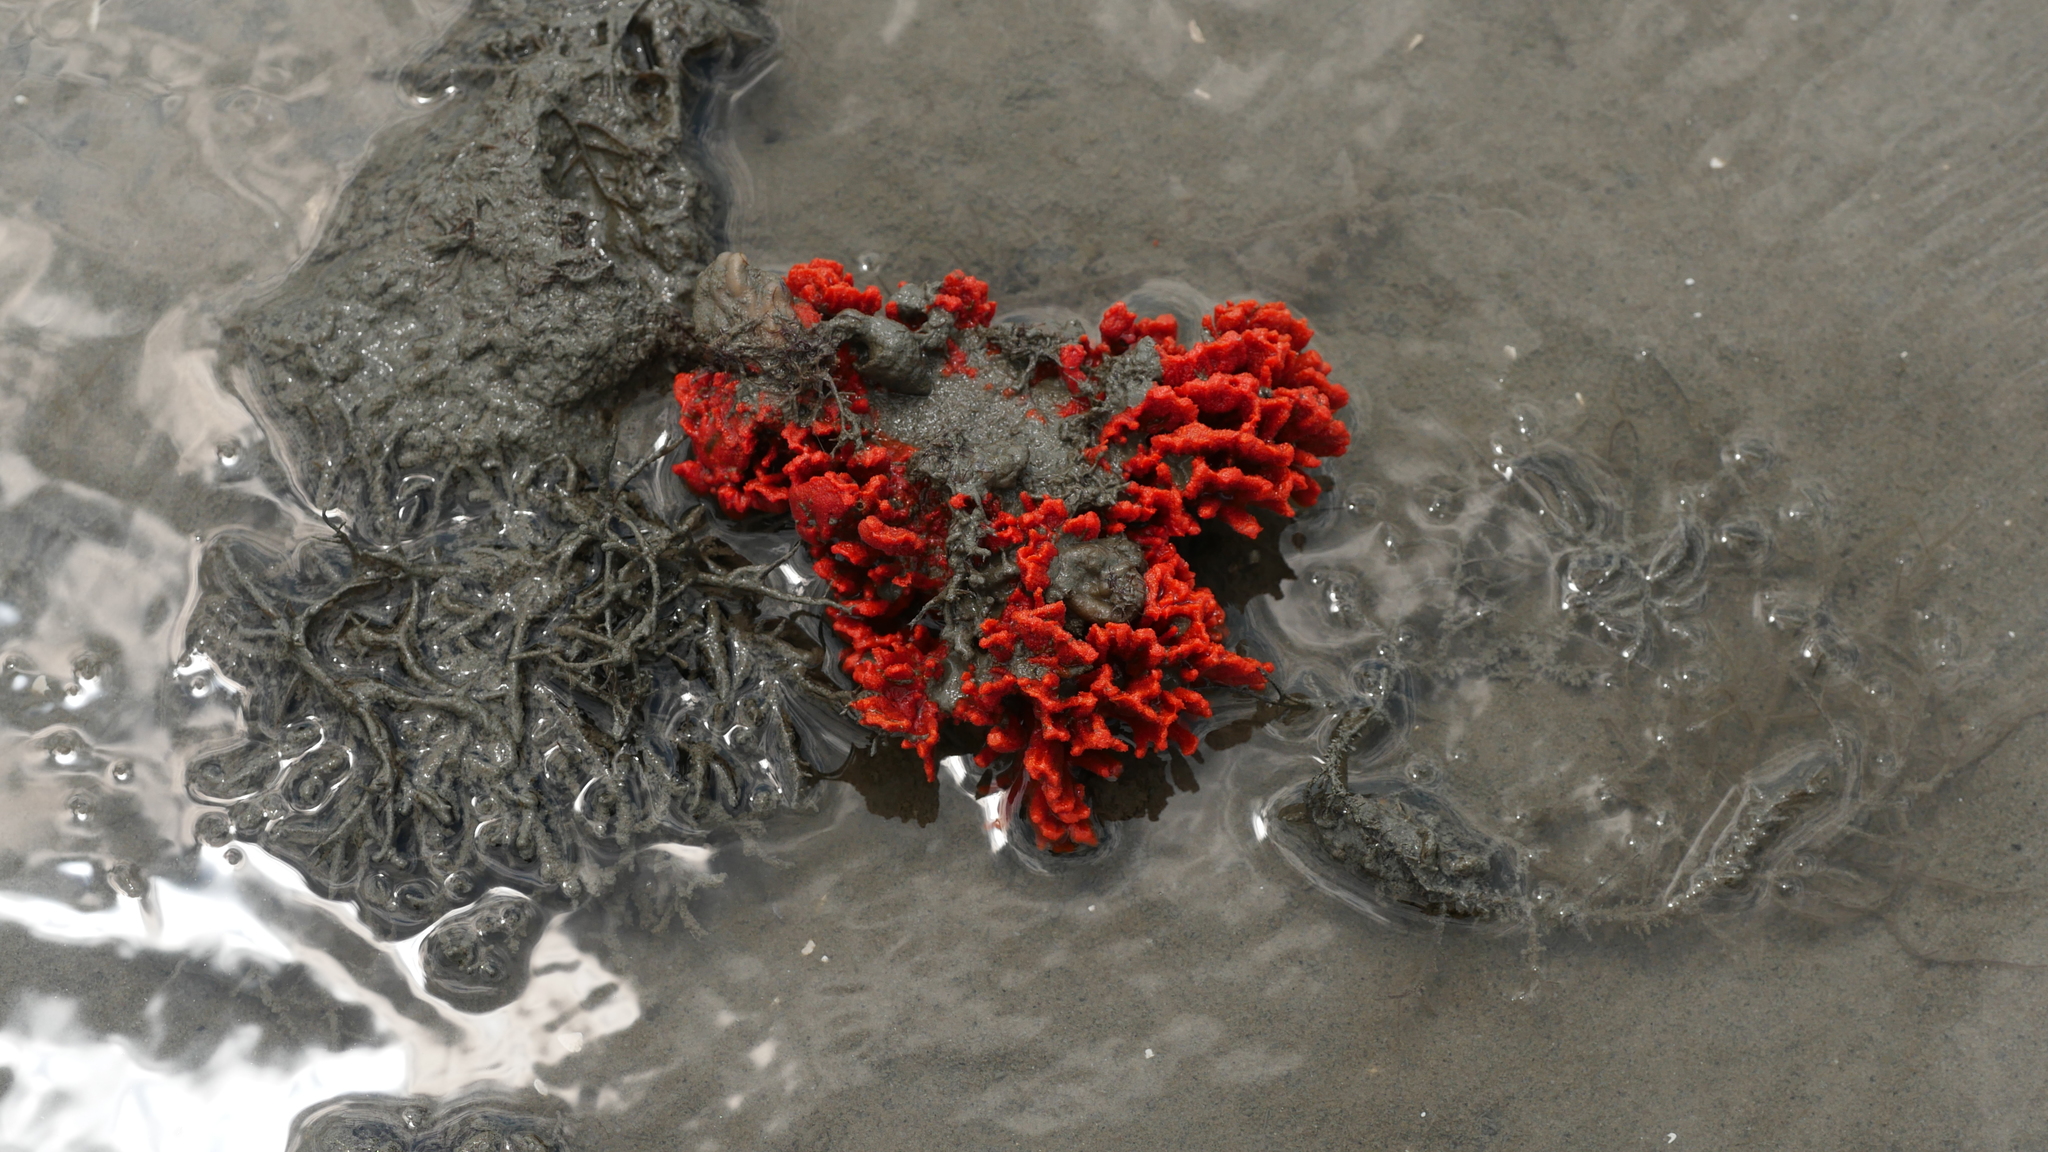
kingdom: Animalia
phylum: Porifera
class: Demospongiae
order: Poecilosclerida
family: Microcionidae
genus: Clathria
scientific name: Clathria prolifera
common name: Red beard sponge
